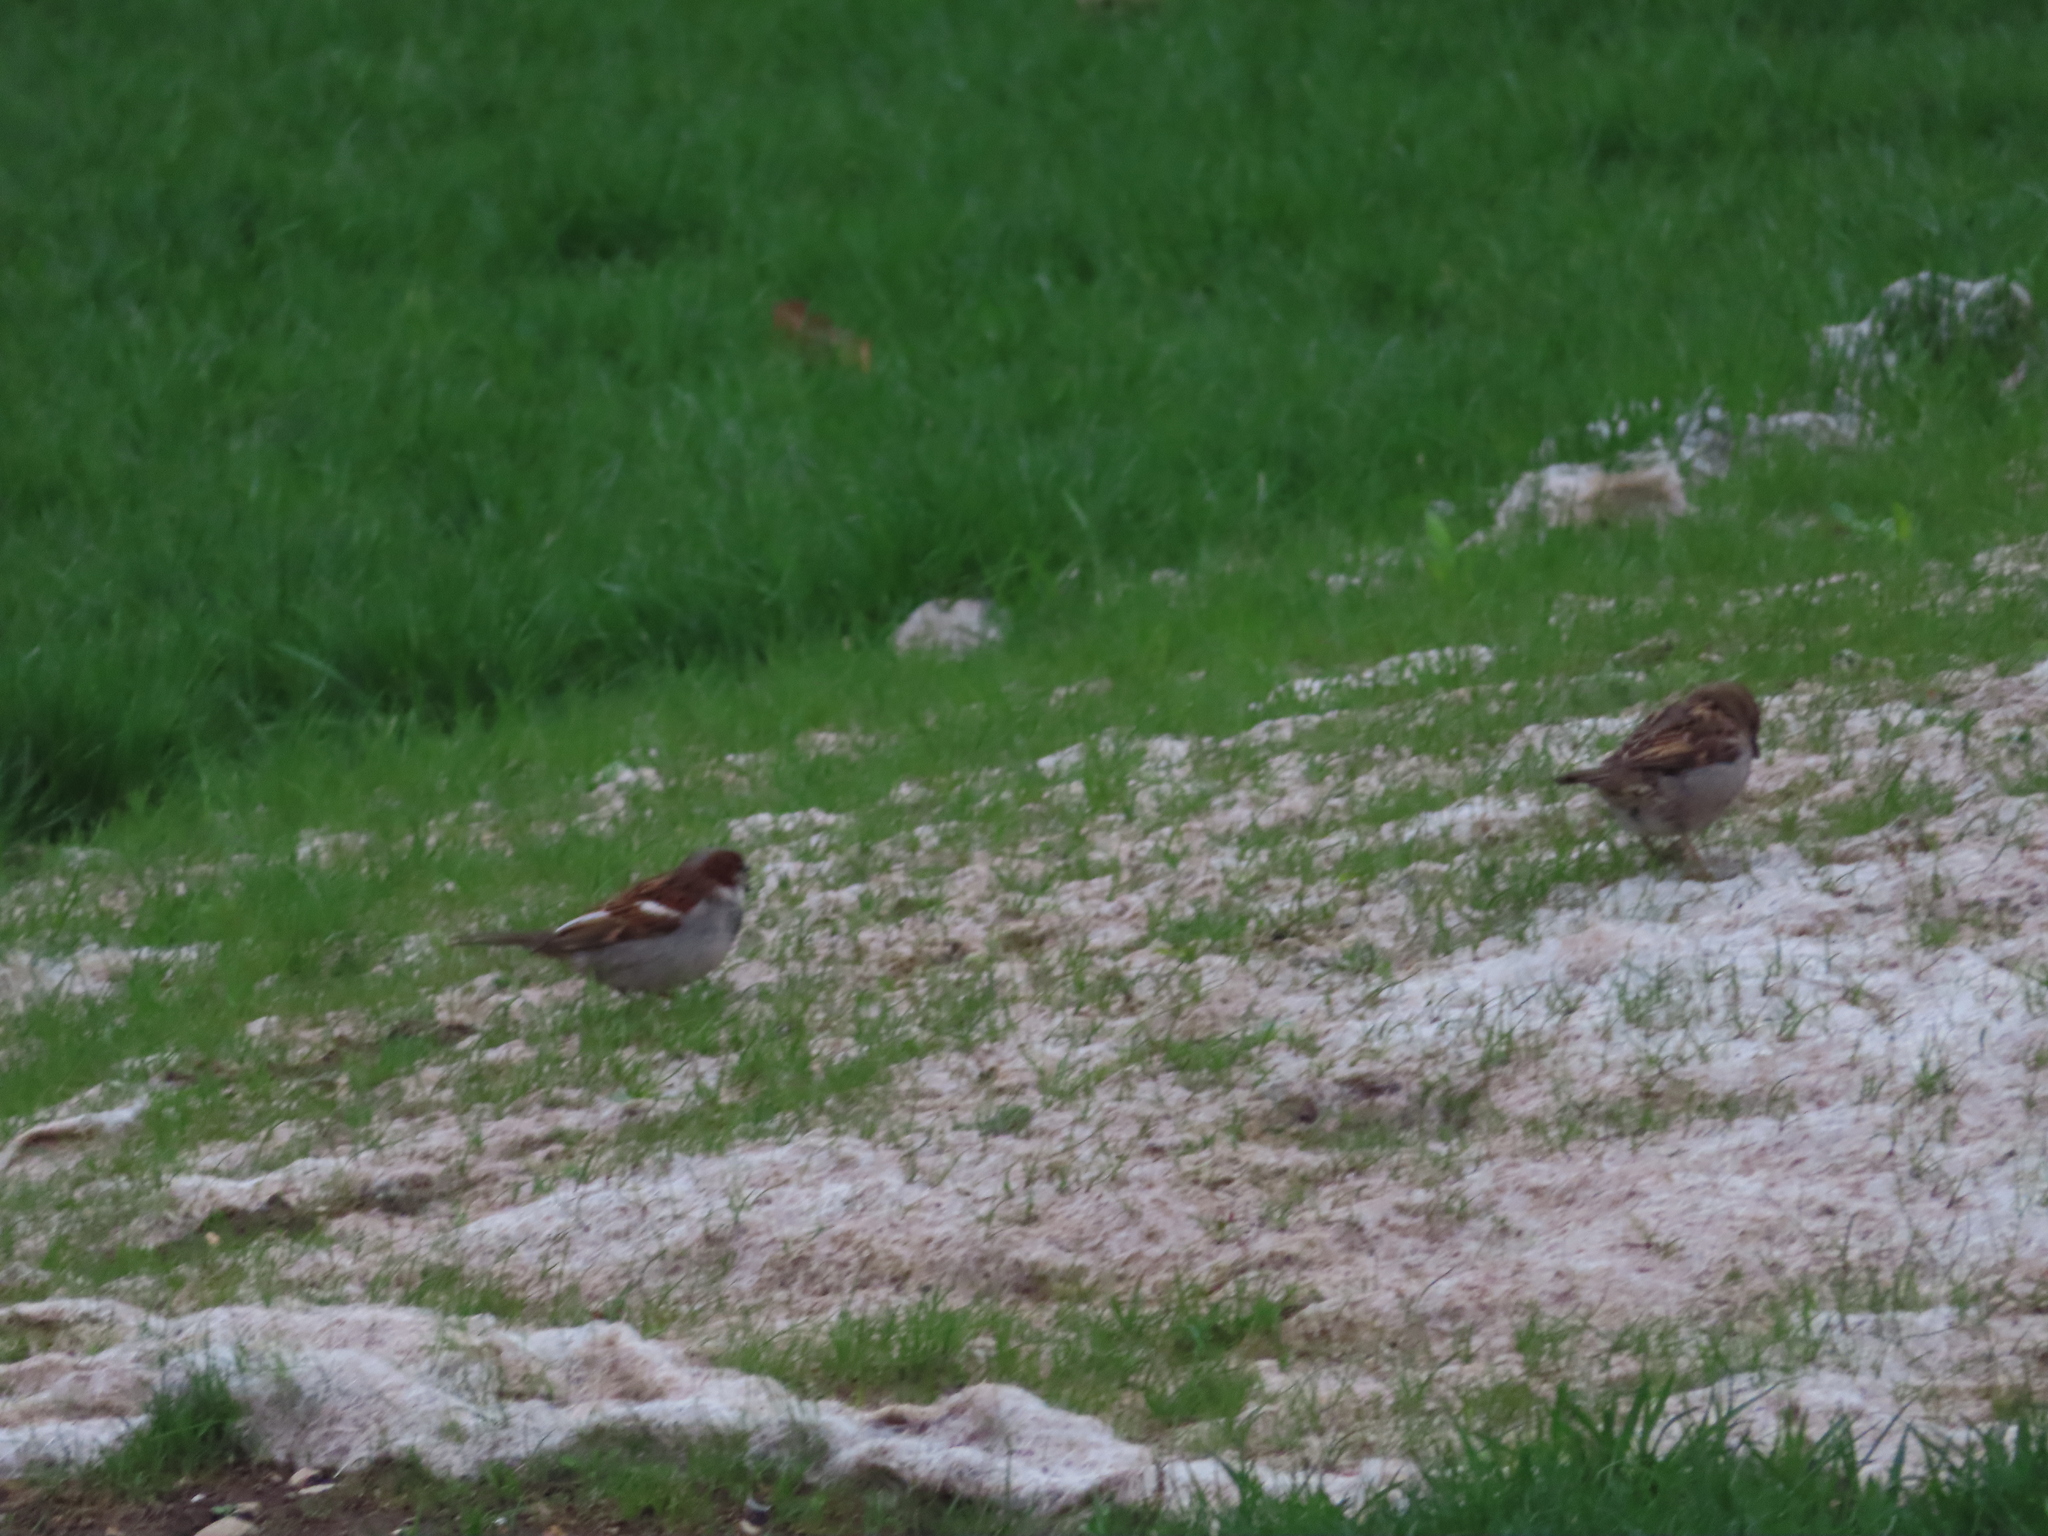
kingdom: Animalia
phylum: Chordata
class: Aves
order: Passeriformes
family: Passeridae
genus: Passer
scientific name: Passer domesticus
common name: House sparrow
